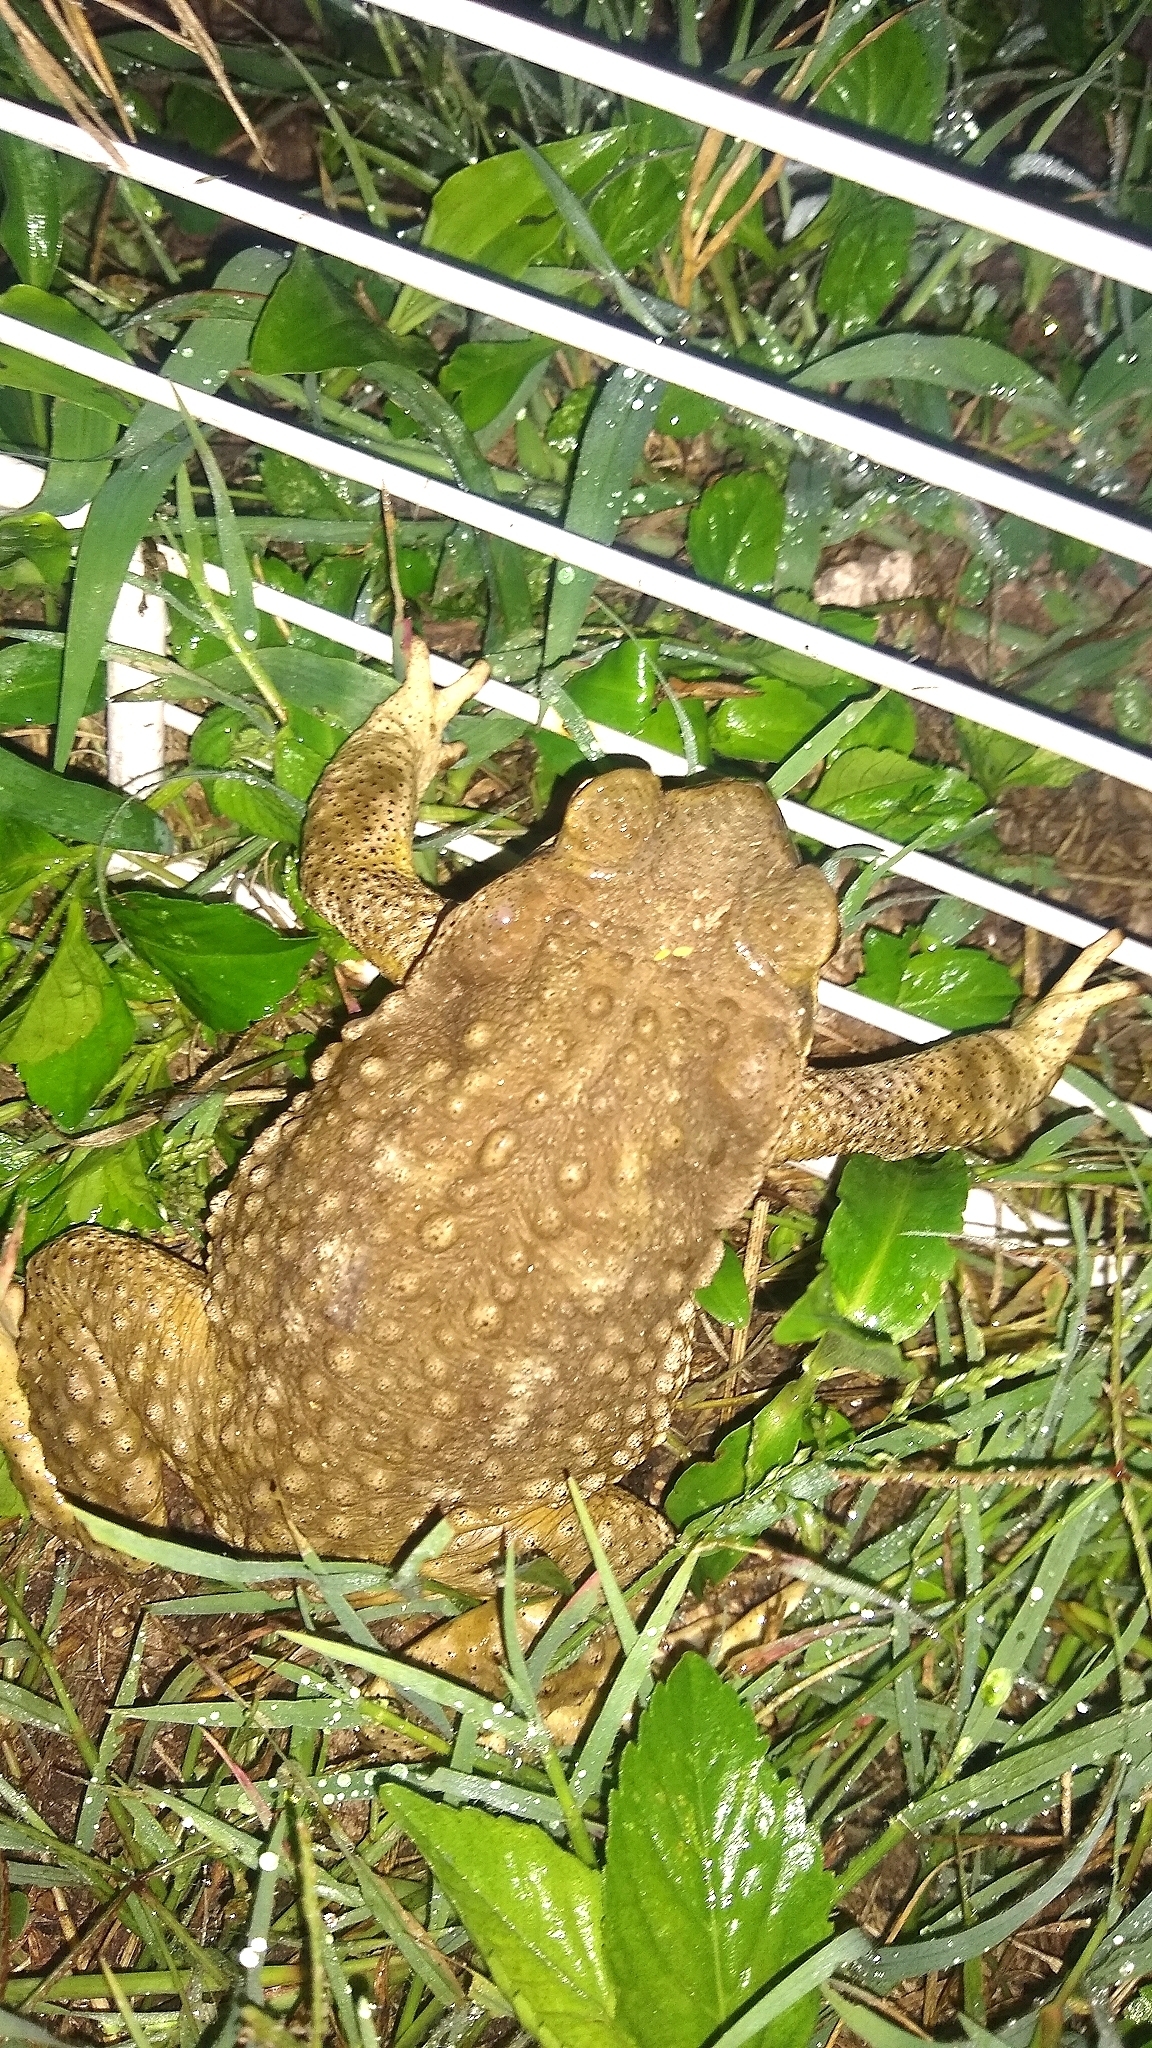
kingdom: Animalia
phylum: Chordata
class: Amphibia
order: Anura
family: Bufonidae
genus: Rhinella
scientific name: Rhinella arenarum
